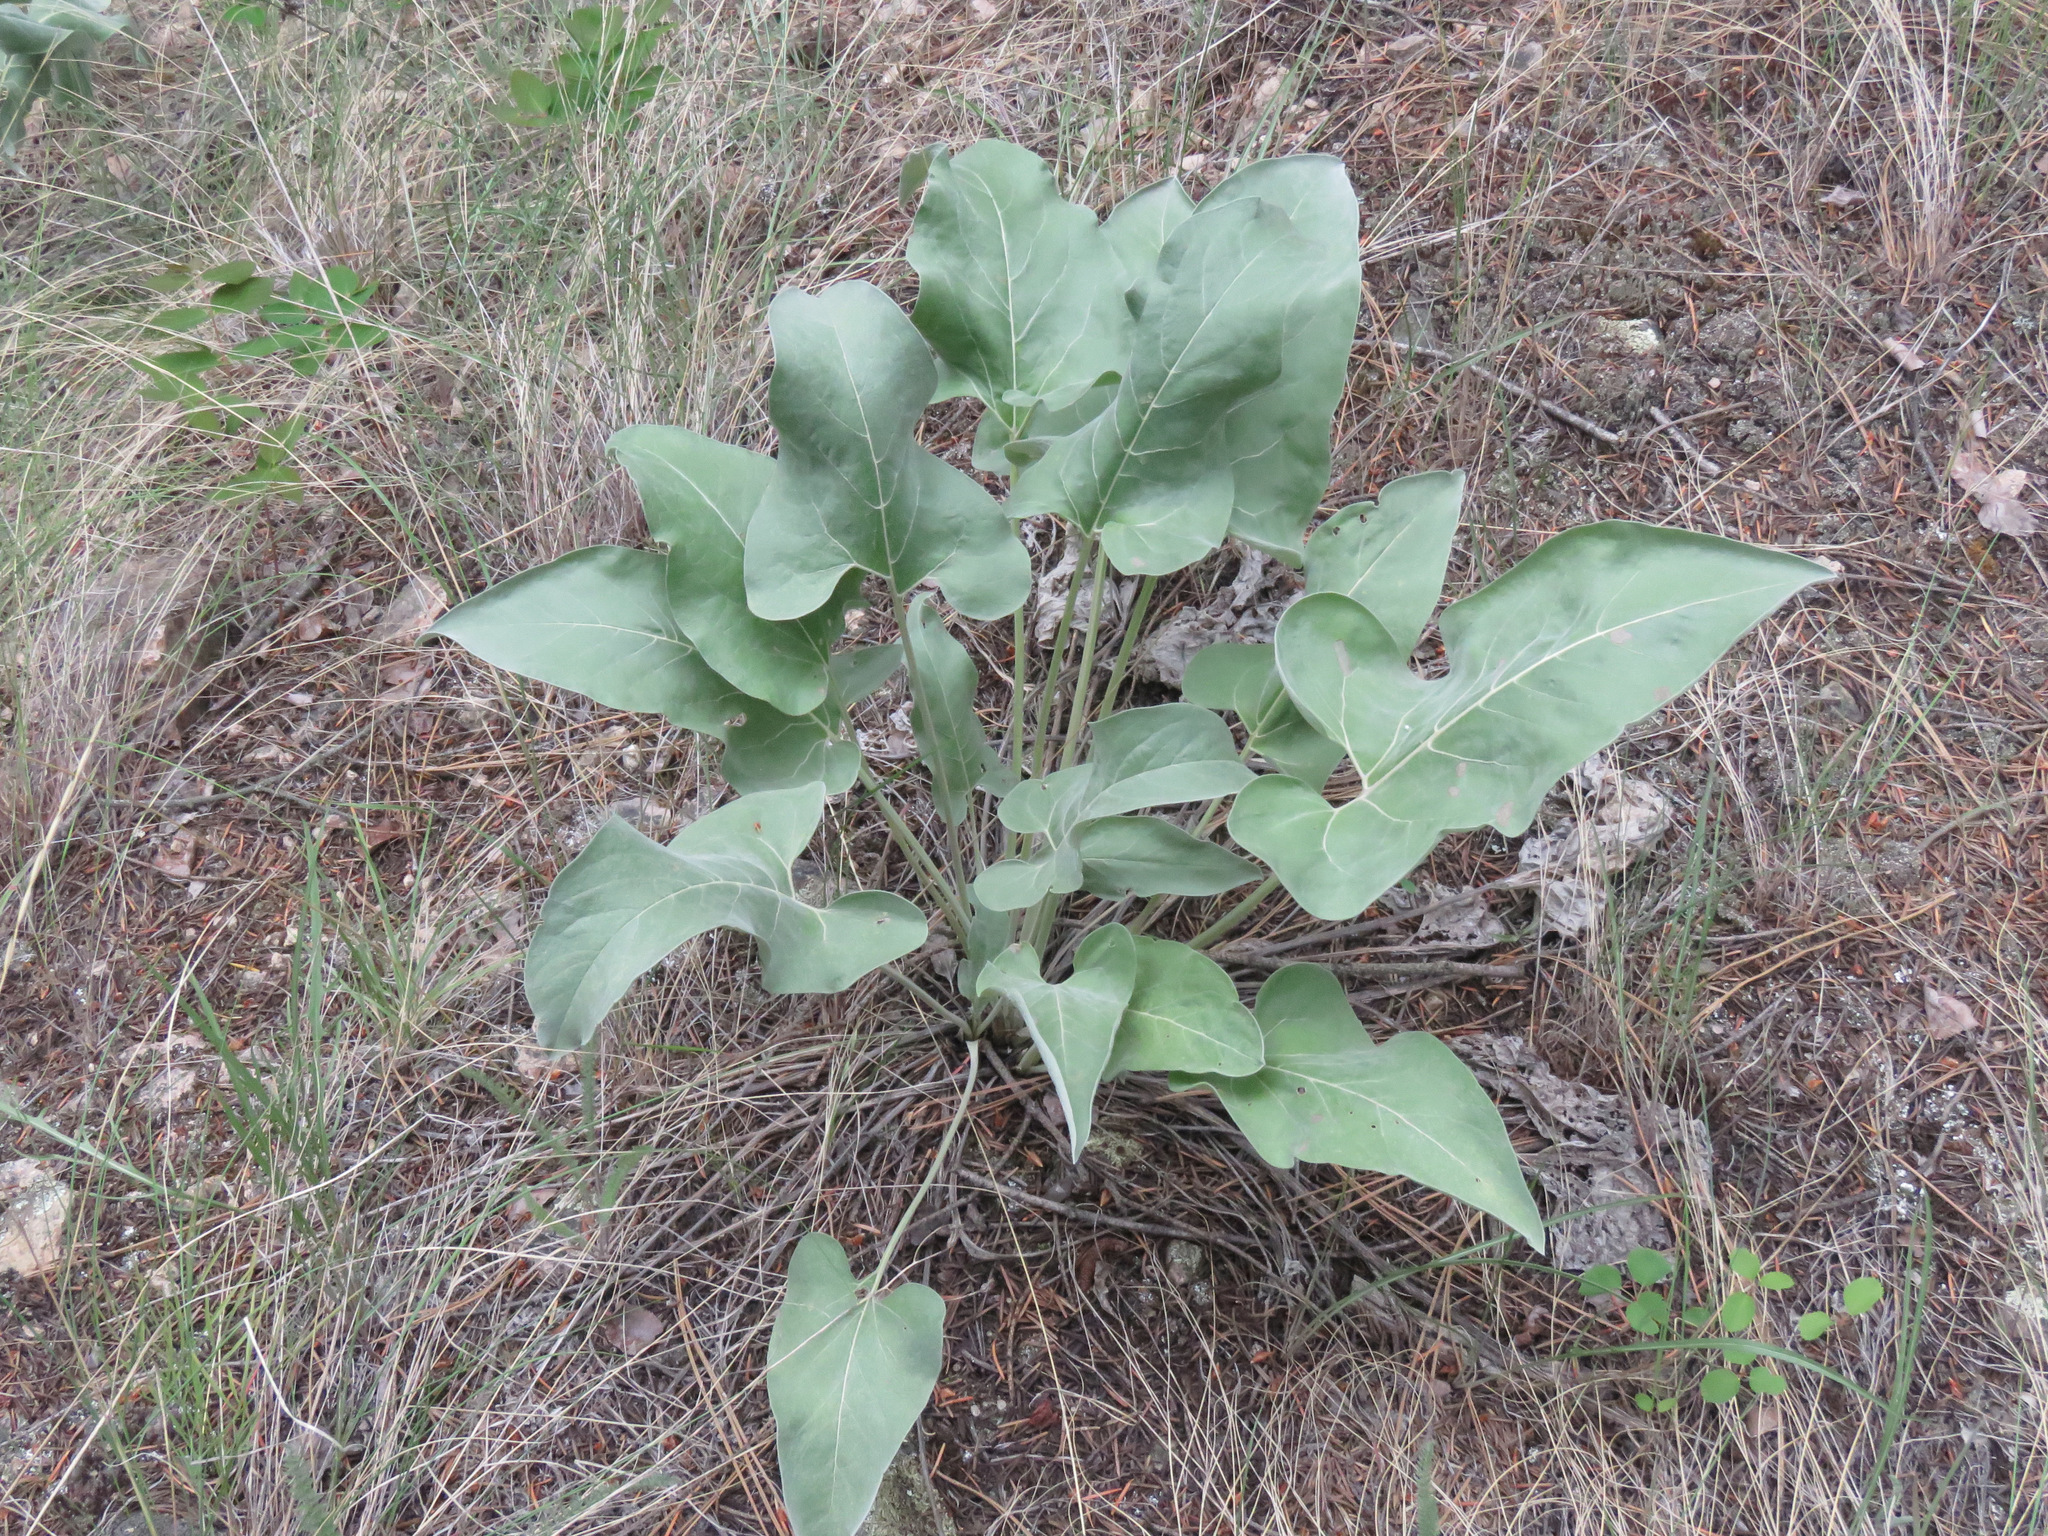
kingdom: Plantae
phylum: Tracheophyta
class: Magnoliopsida
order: Asterales
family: Asteraceae
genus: Wyethia
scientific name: Wyethia sagittata
